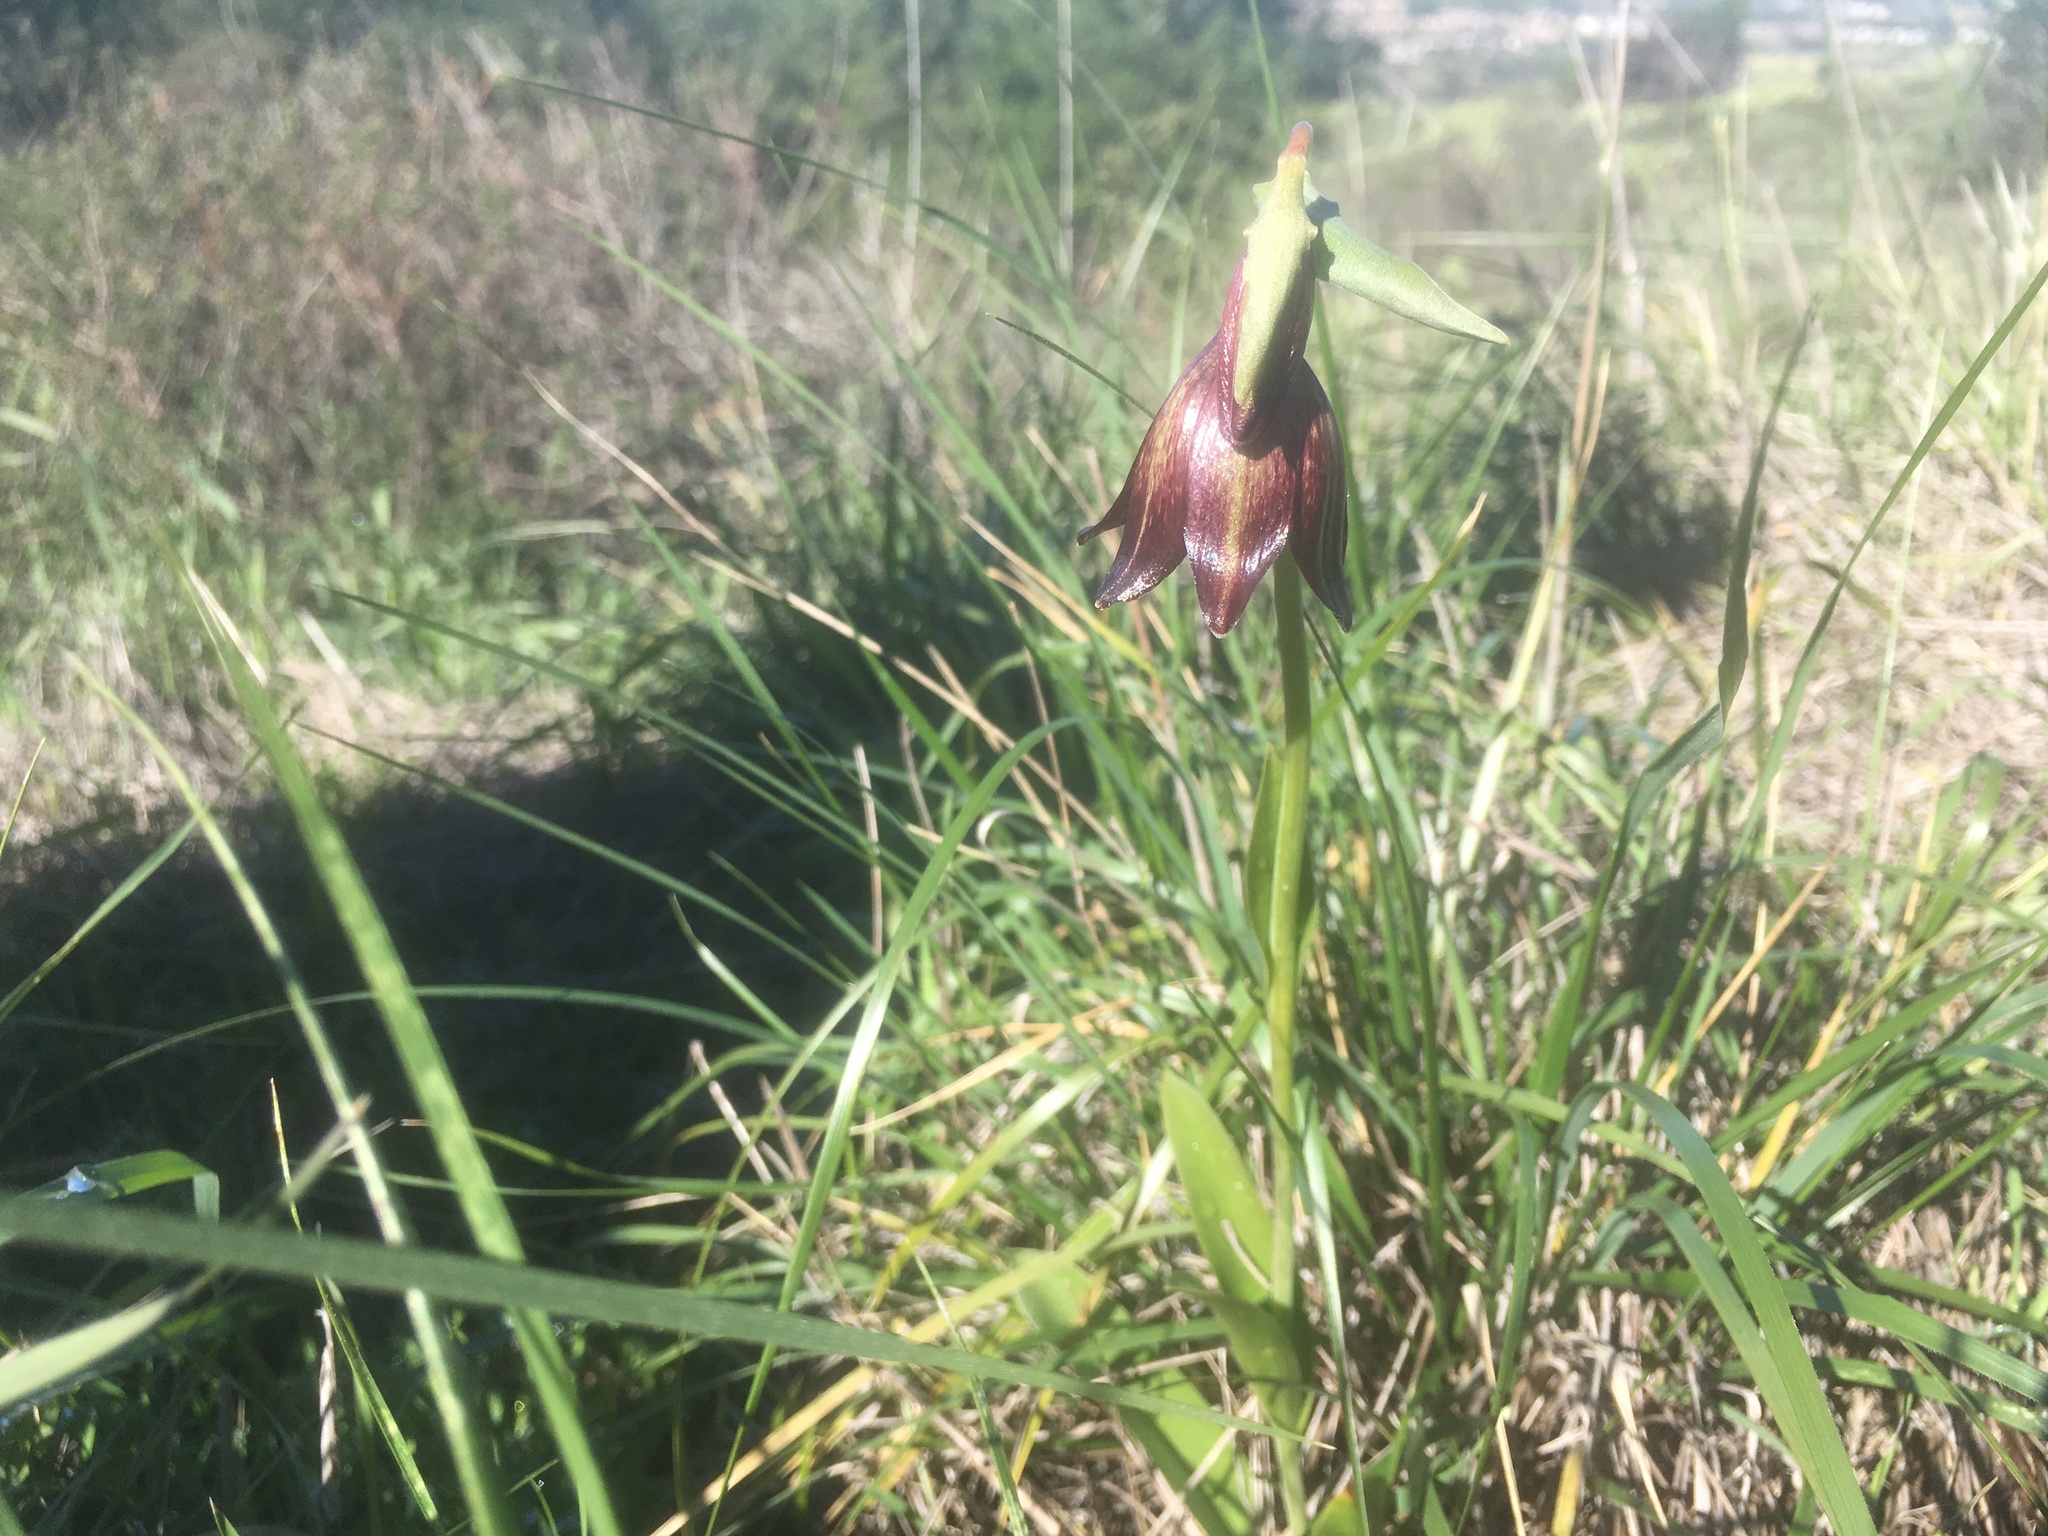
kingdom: Plantae
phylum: Tracheophyta
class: Liliopsida
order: Liliales
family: Liliaceae
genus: Fritillaria
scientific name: Fritillaria biflora
